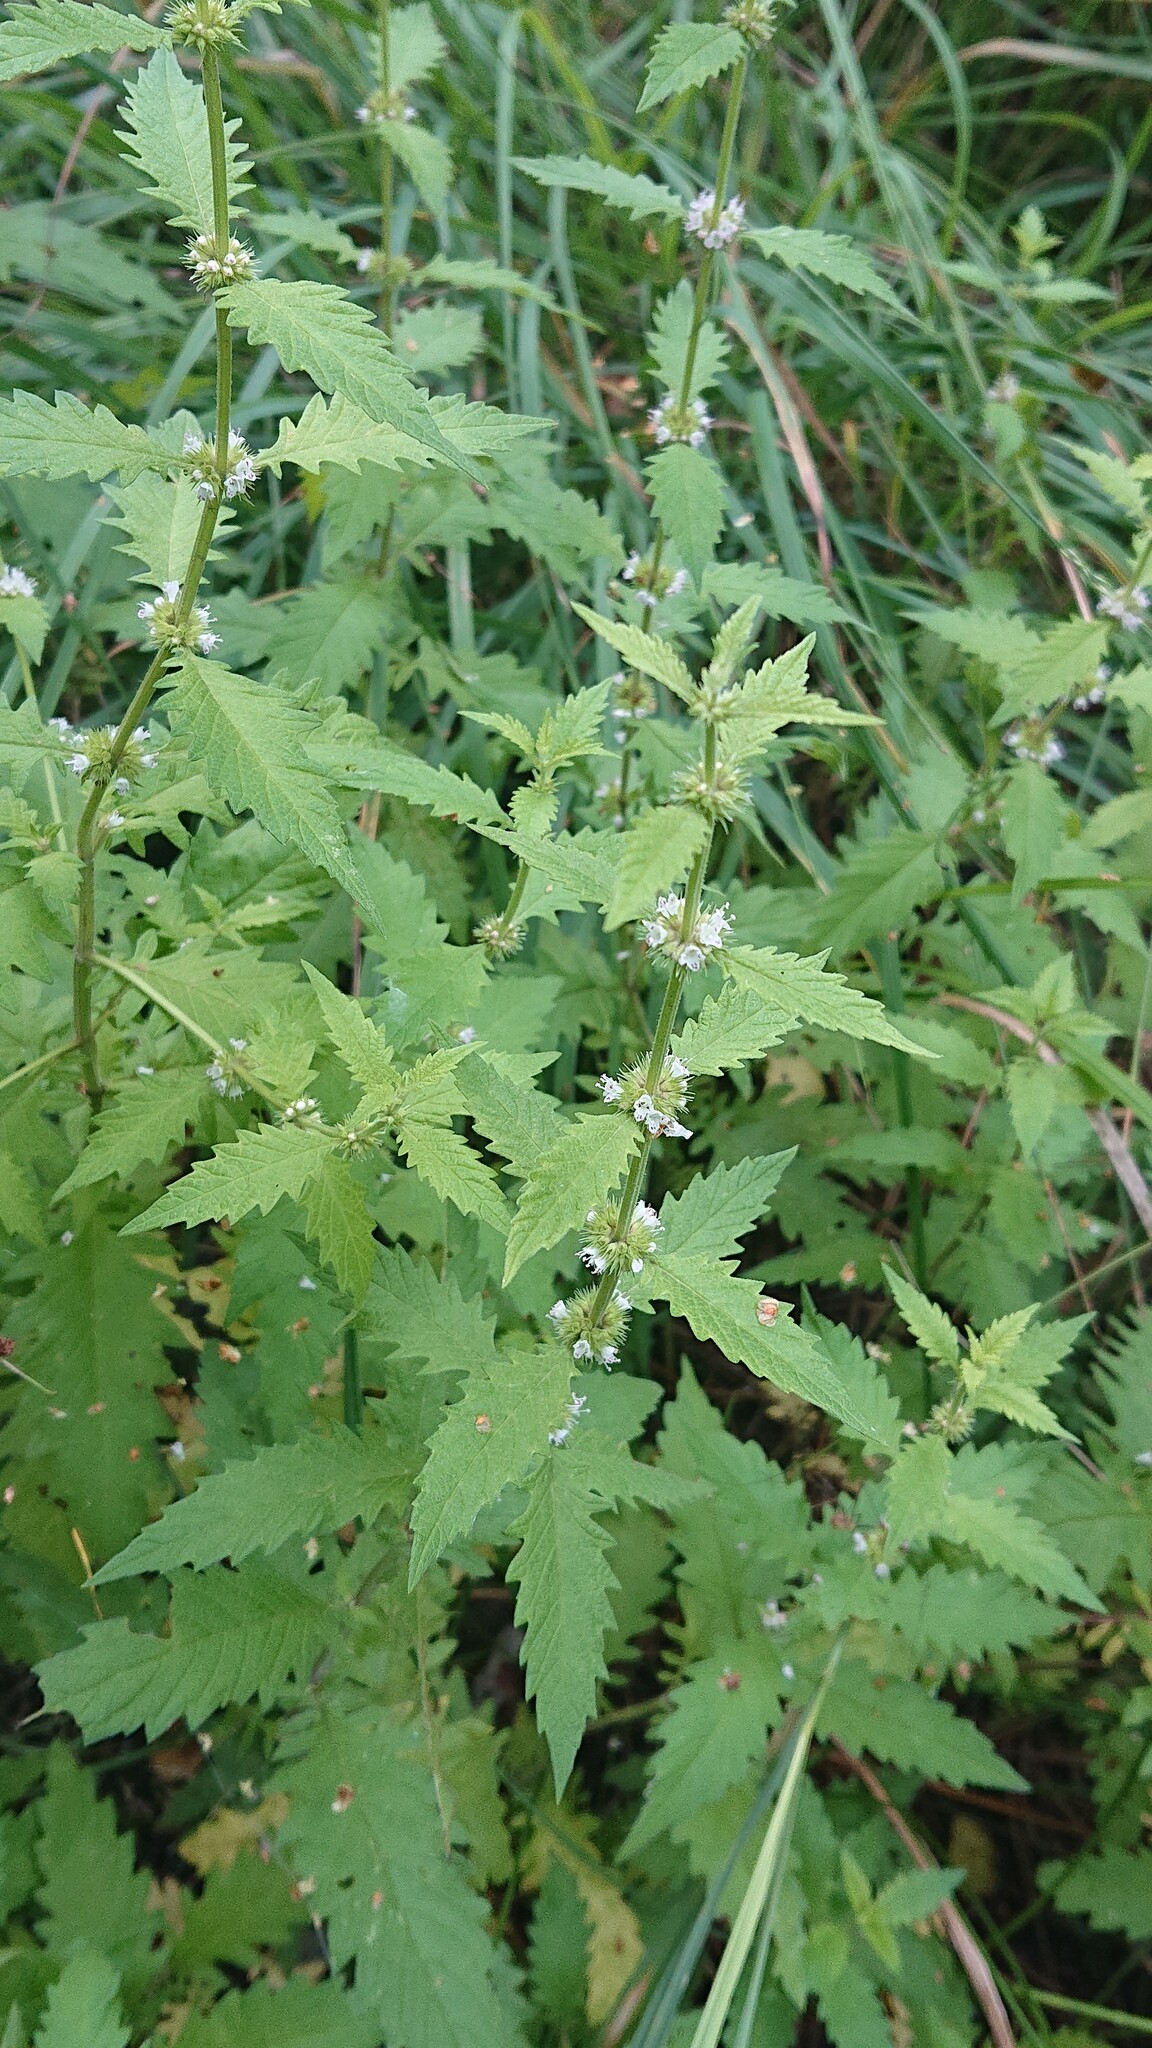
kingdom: Plantae
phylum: Tracheophyta
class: Magnoliopsida
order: Lamiales
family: Lamiaceae
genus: Lycopus
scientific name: Lycopus europaeus
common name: European bugleweed
